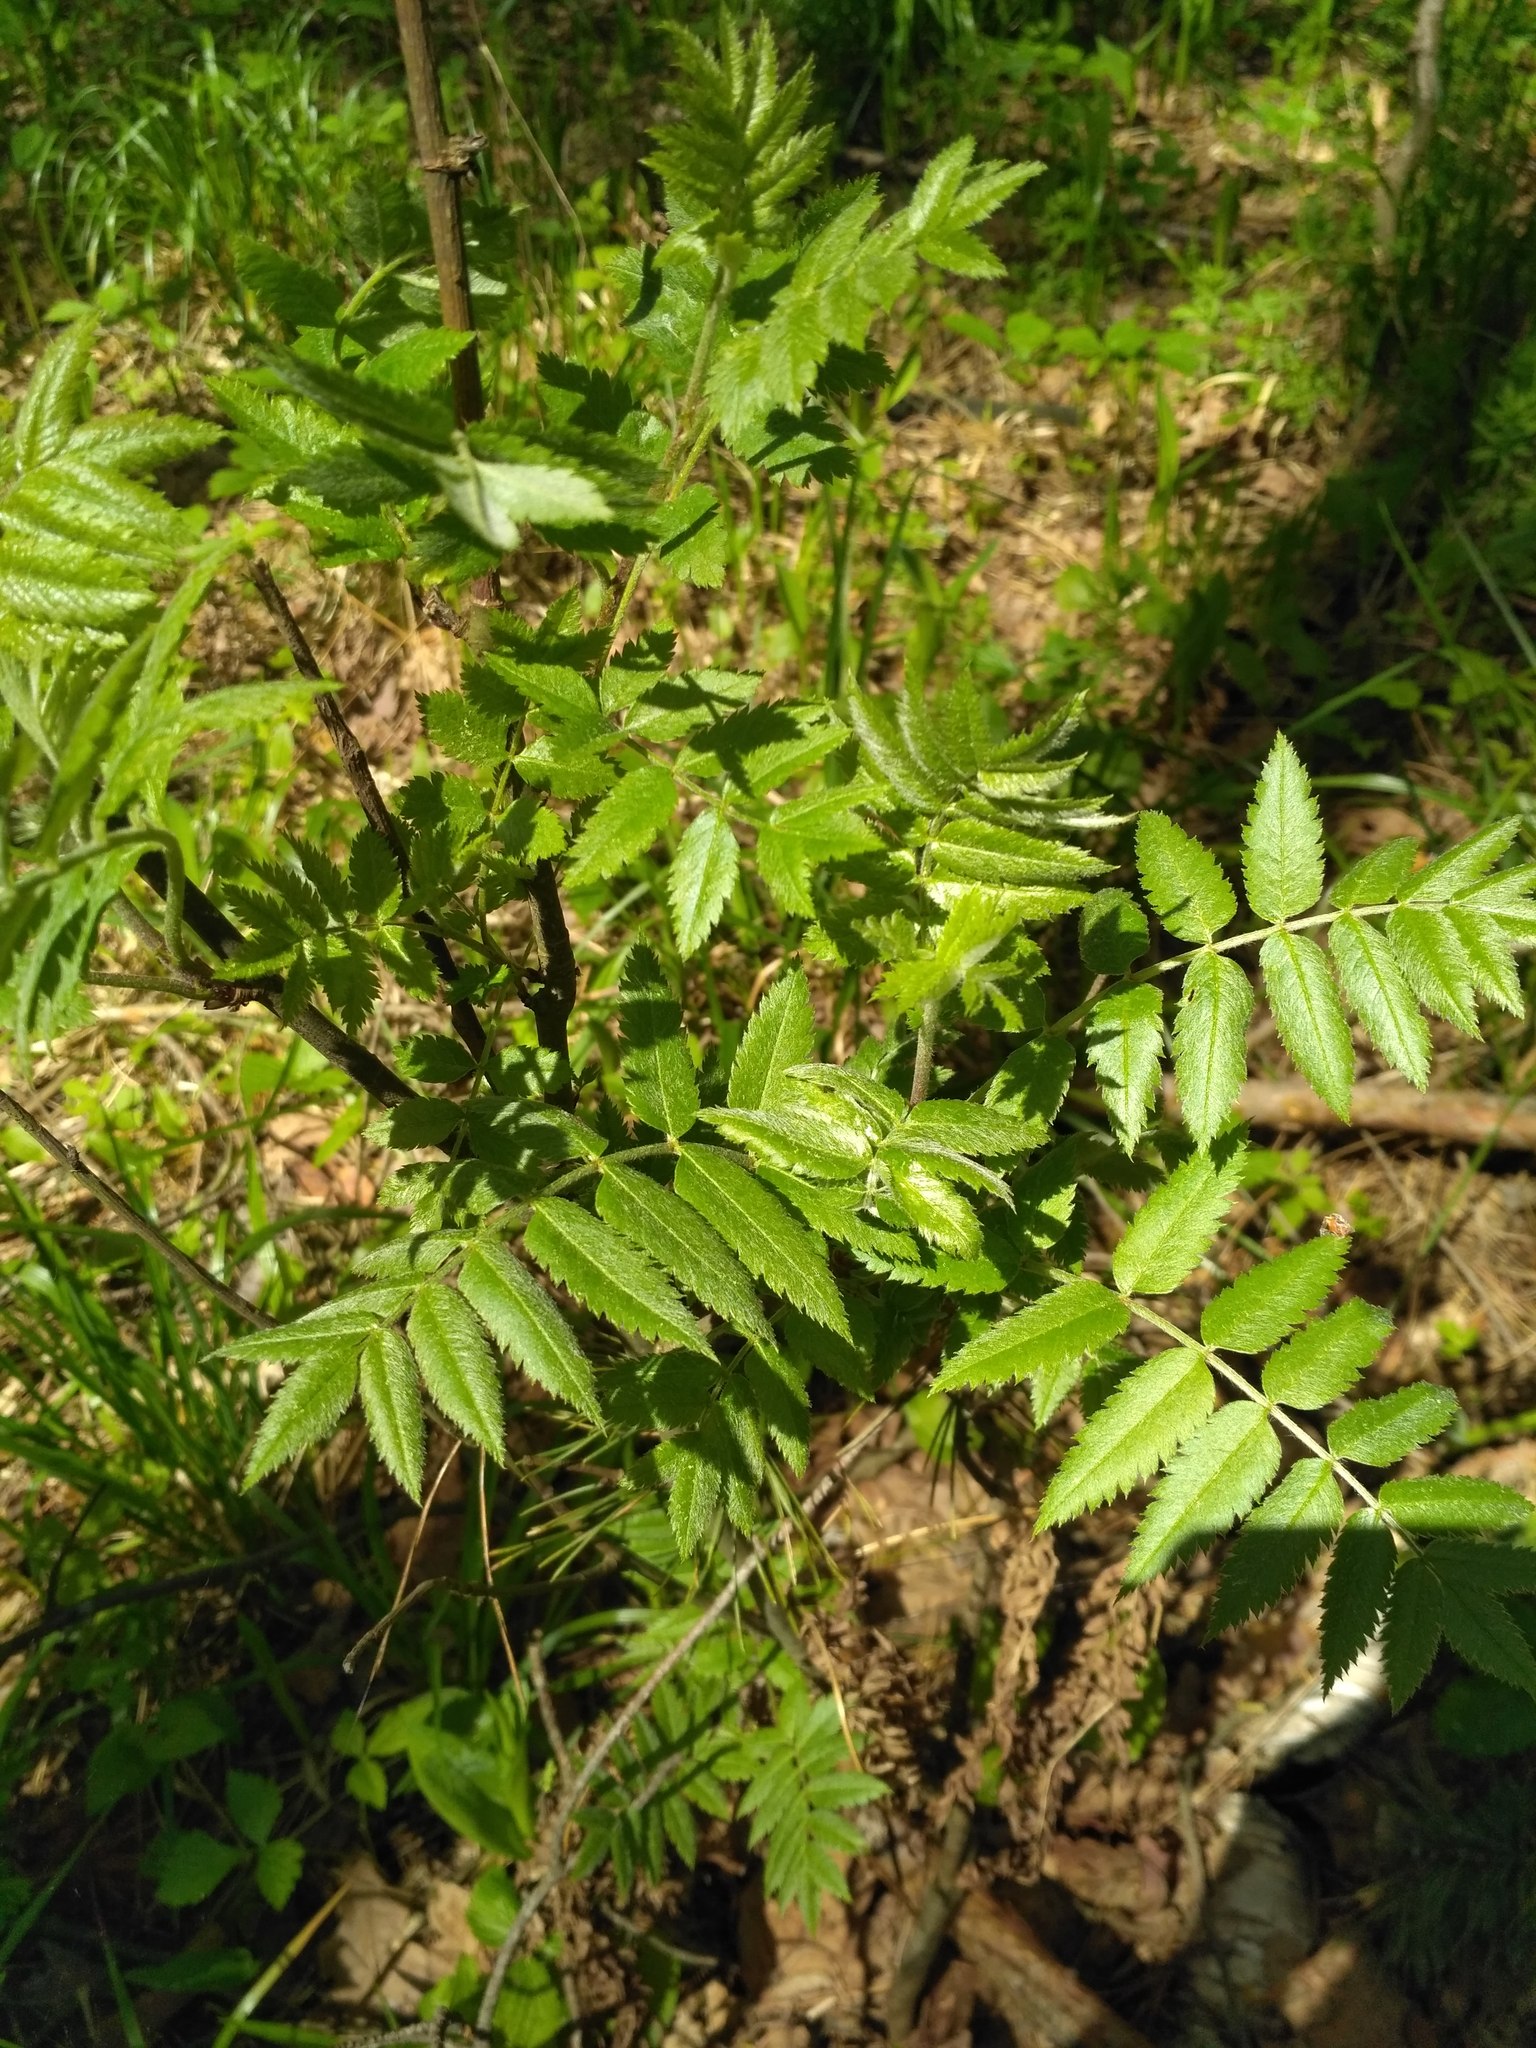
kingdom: Plantae
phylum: Tracheophyta
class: Magnoliopsida
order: Rosales
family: Rosaceae
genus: Sorbus
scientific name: Sorbus aucuparia
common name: Rowan
